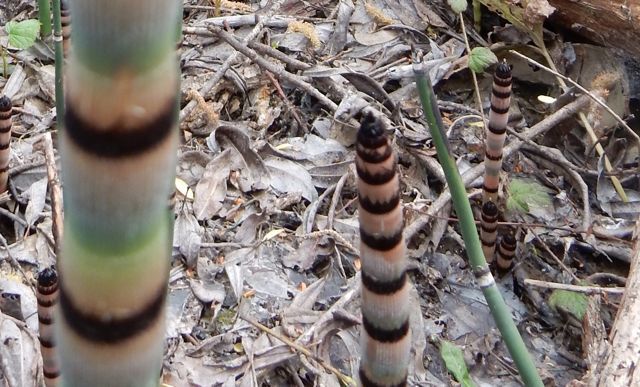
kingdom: Plantae
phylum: Tracheophyta
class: Polypodiopsida
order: Equisetales
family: Equisetaceae
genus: Equisetum
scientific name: Equisetum praealtum
